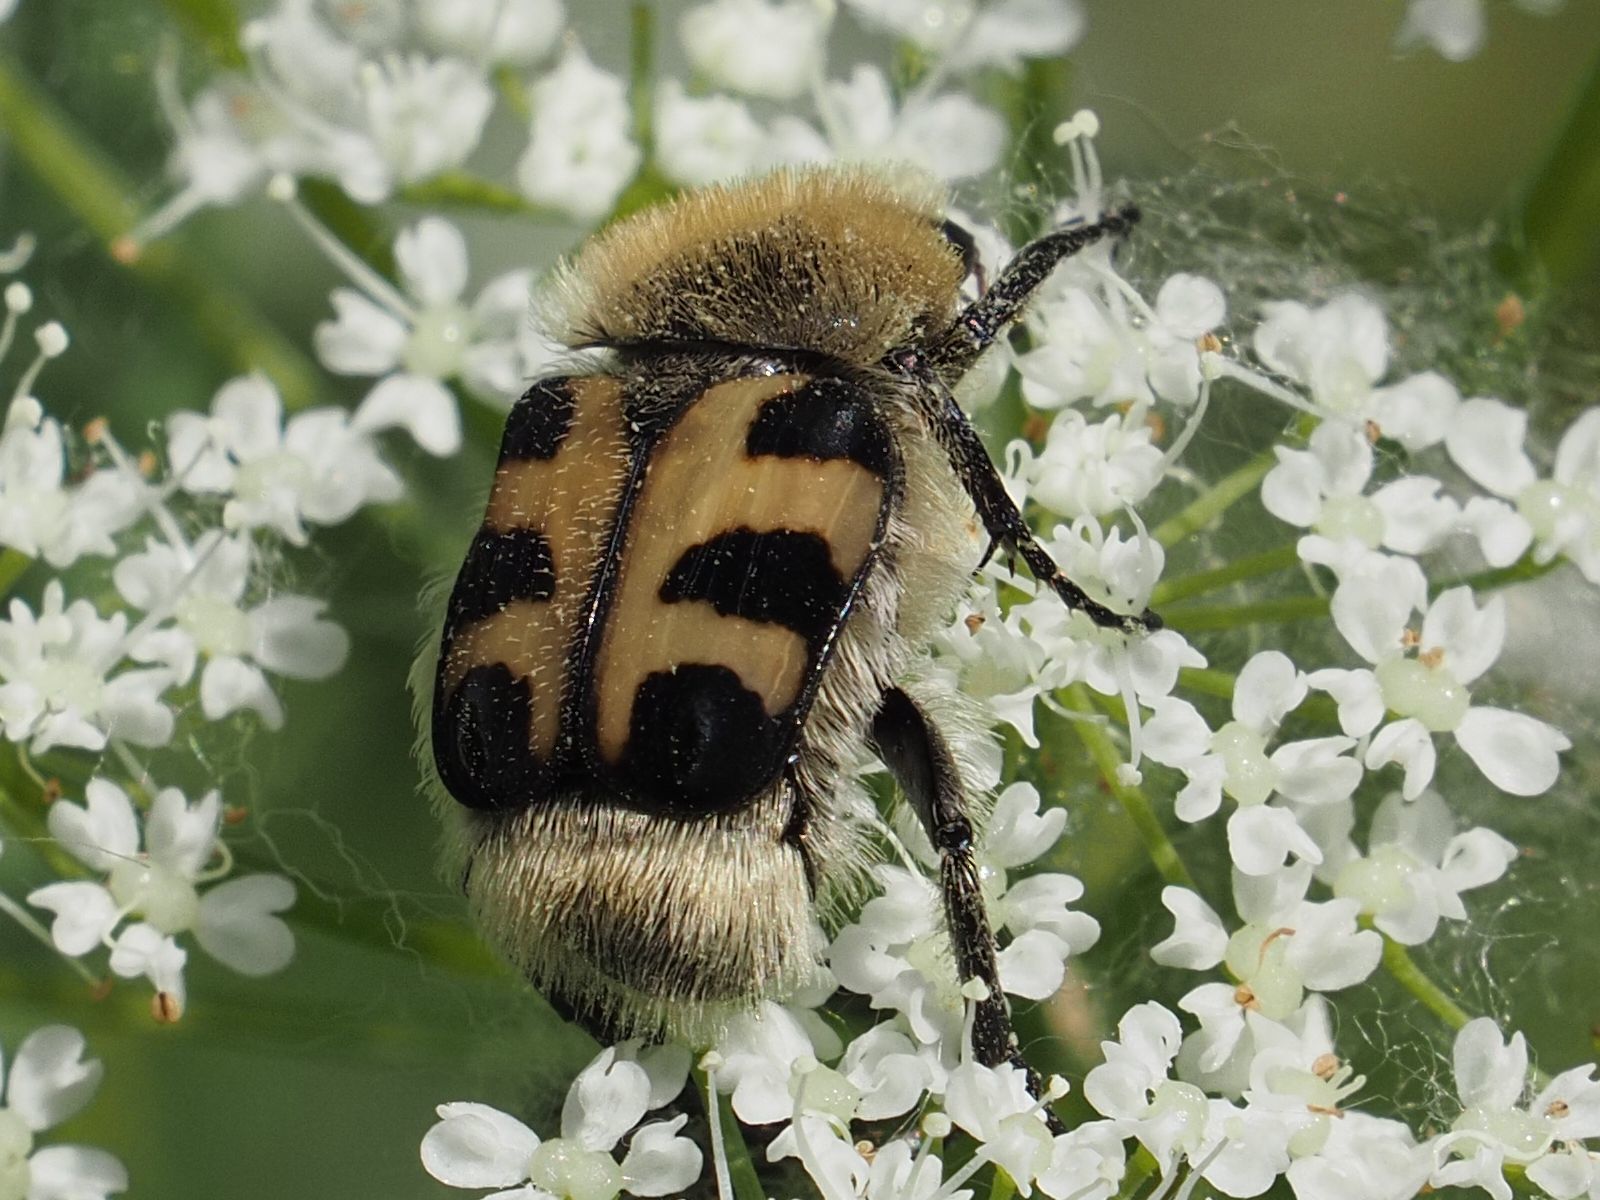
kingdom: Animalia
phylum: Arthropoda
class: Insecta
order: Coleoptera
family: Scarabaeidae
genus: Trichius
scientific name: Trichius gallicus
